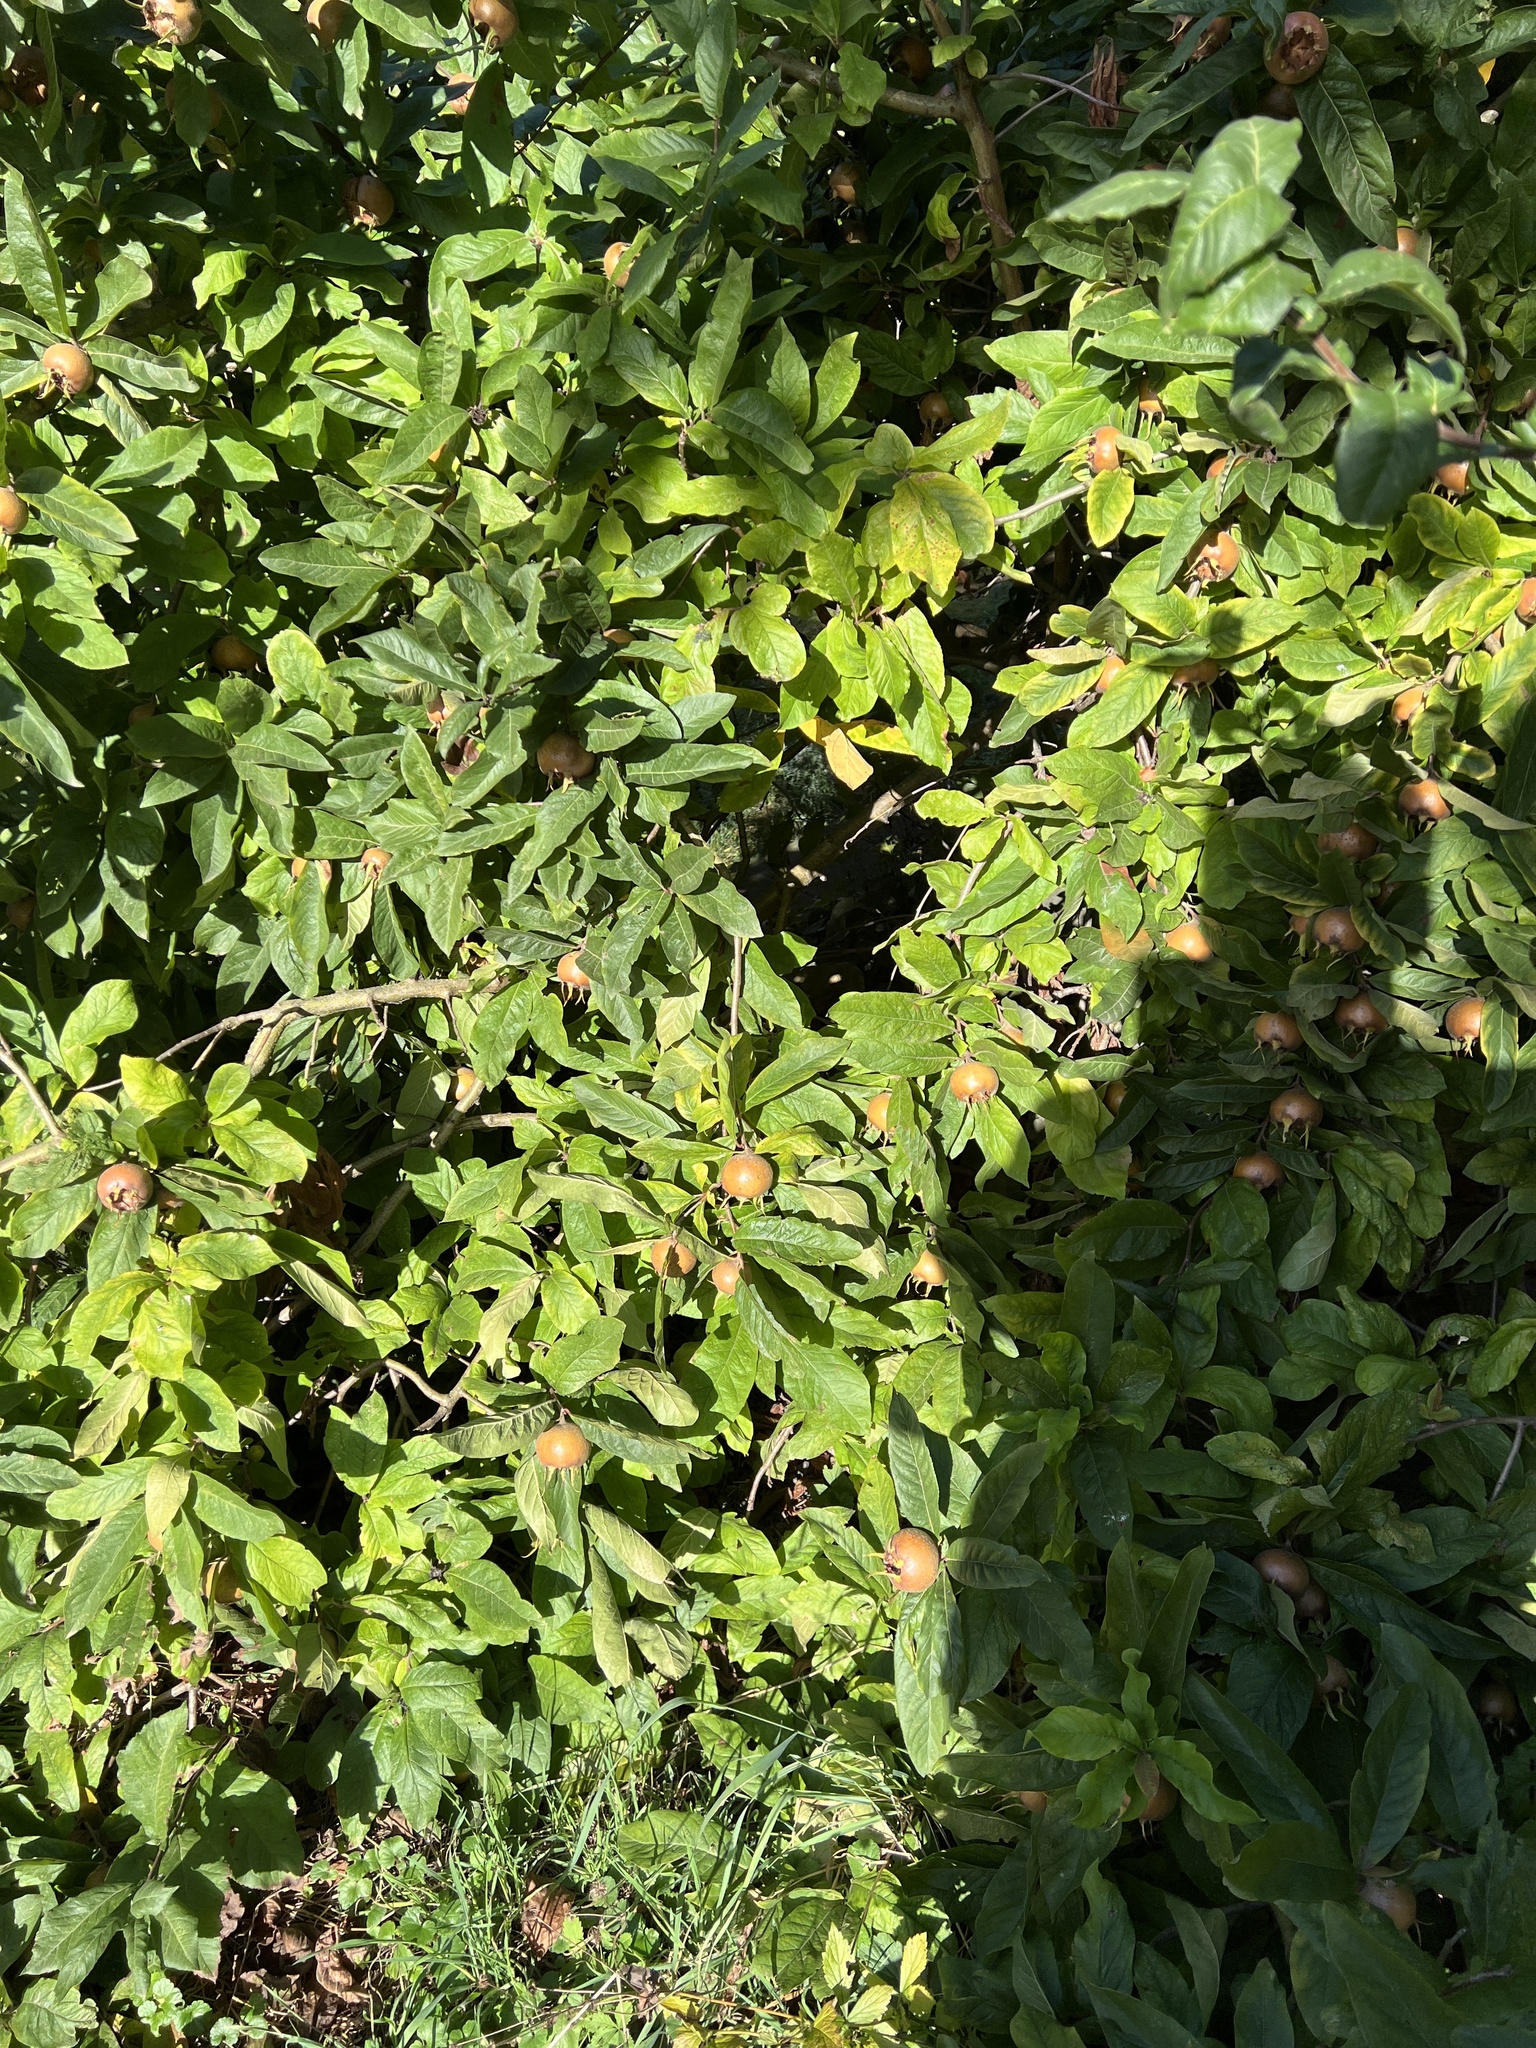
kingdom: Plantae
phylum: Tracheophyta
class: Magnoliopsida
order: Rosales
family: Rosaceae
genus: Mespilus
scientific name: Mespilus germanica
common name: Medlar
